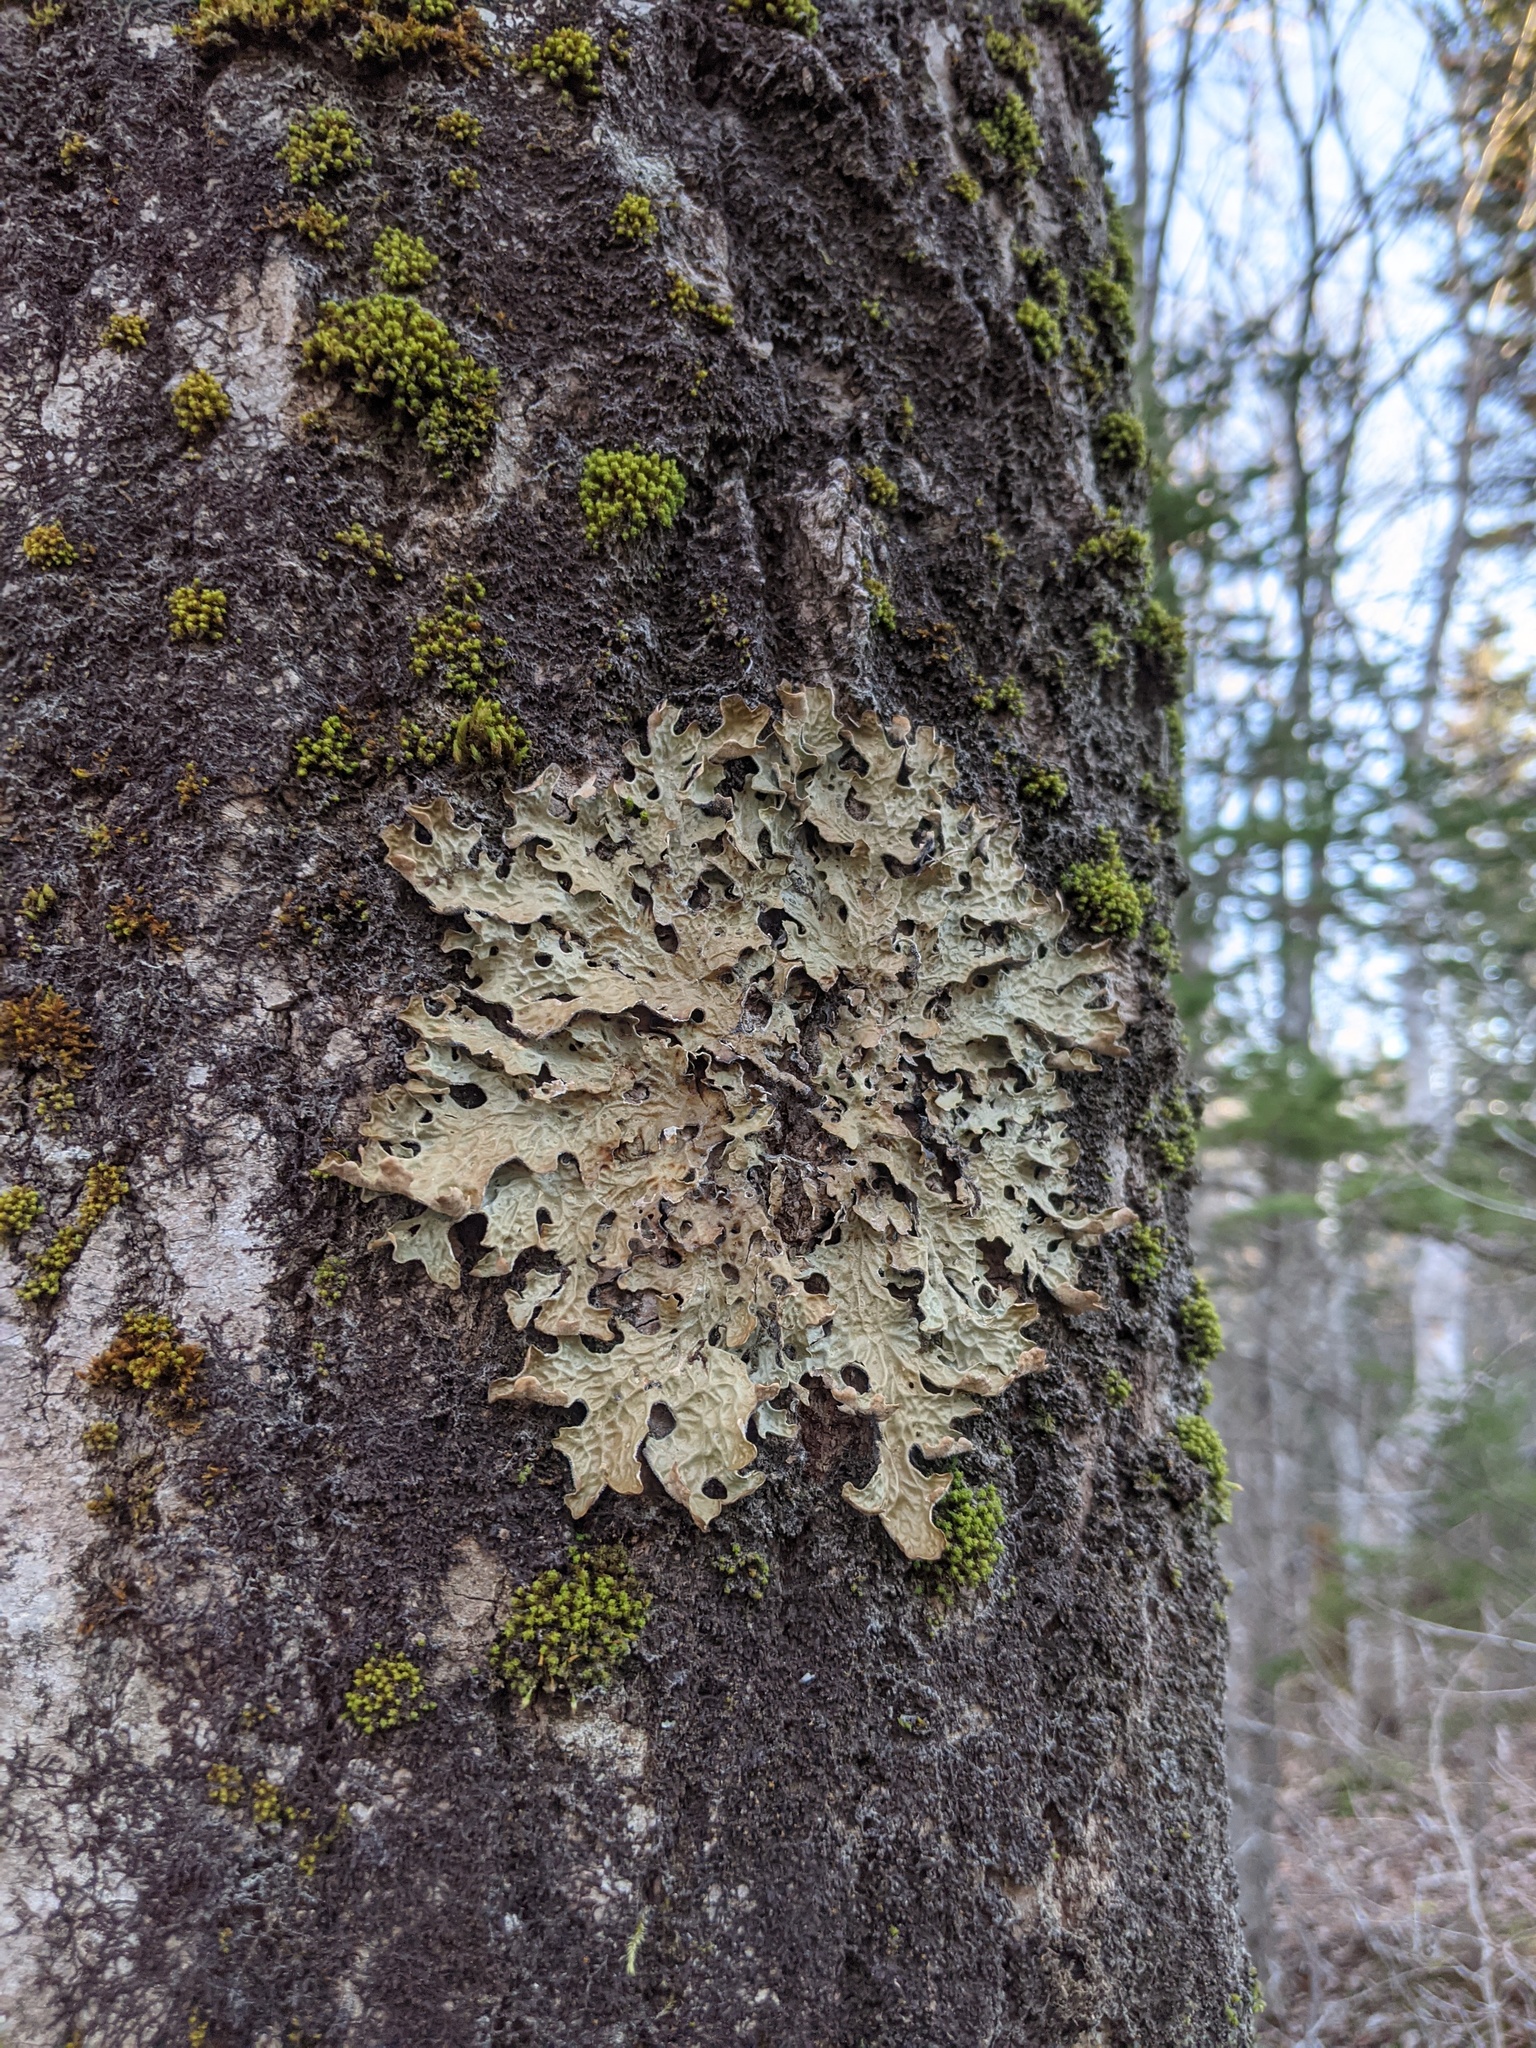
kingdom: Fungi
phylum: Ascomycota
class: Lecanoromycetes
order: Peltigerales
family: Lobariaceae
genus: Lobaria
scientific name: Lobaria pulmonaria
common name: Lungwort
